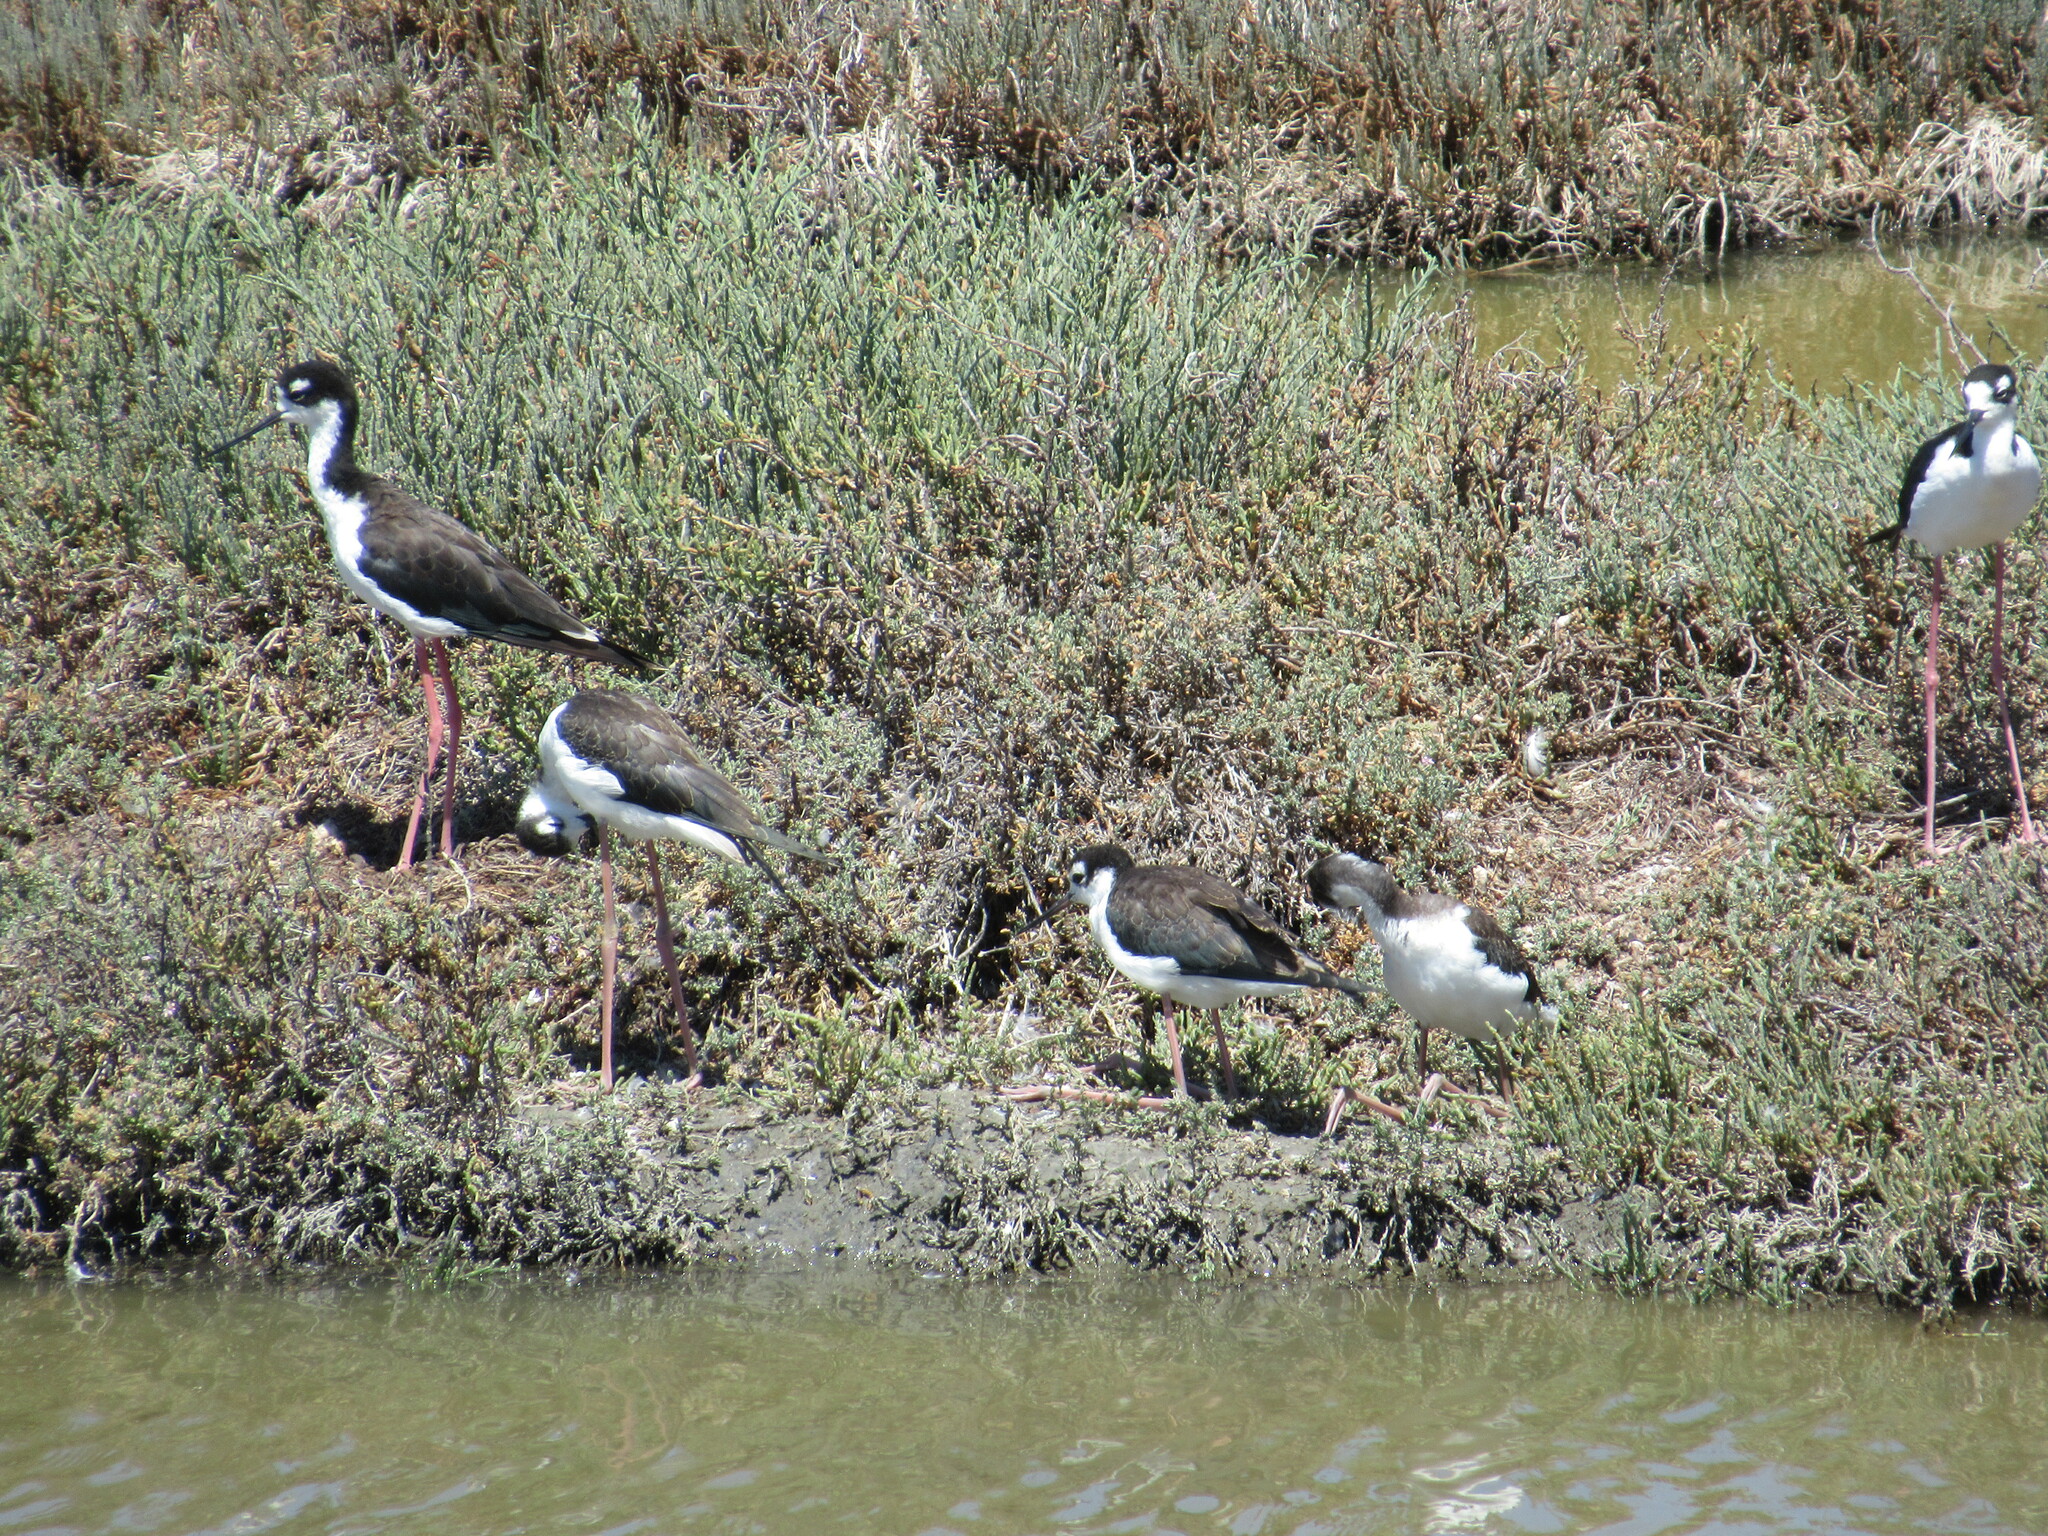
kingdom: Animalia
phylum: Chordata
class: Aves
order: Charadriiformes
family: Recurvirostridae
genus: Himantopus
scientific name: Himantopus mexicanus
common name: Black-necked stilt
